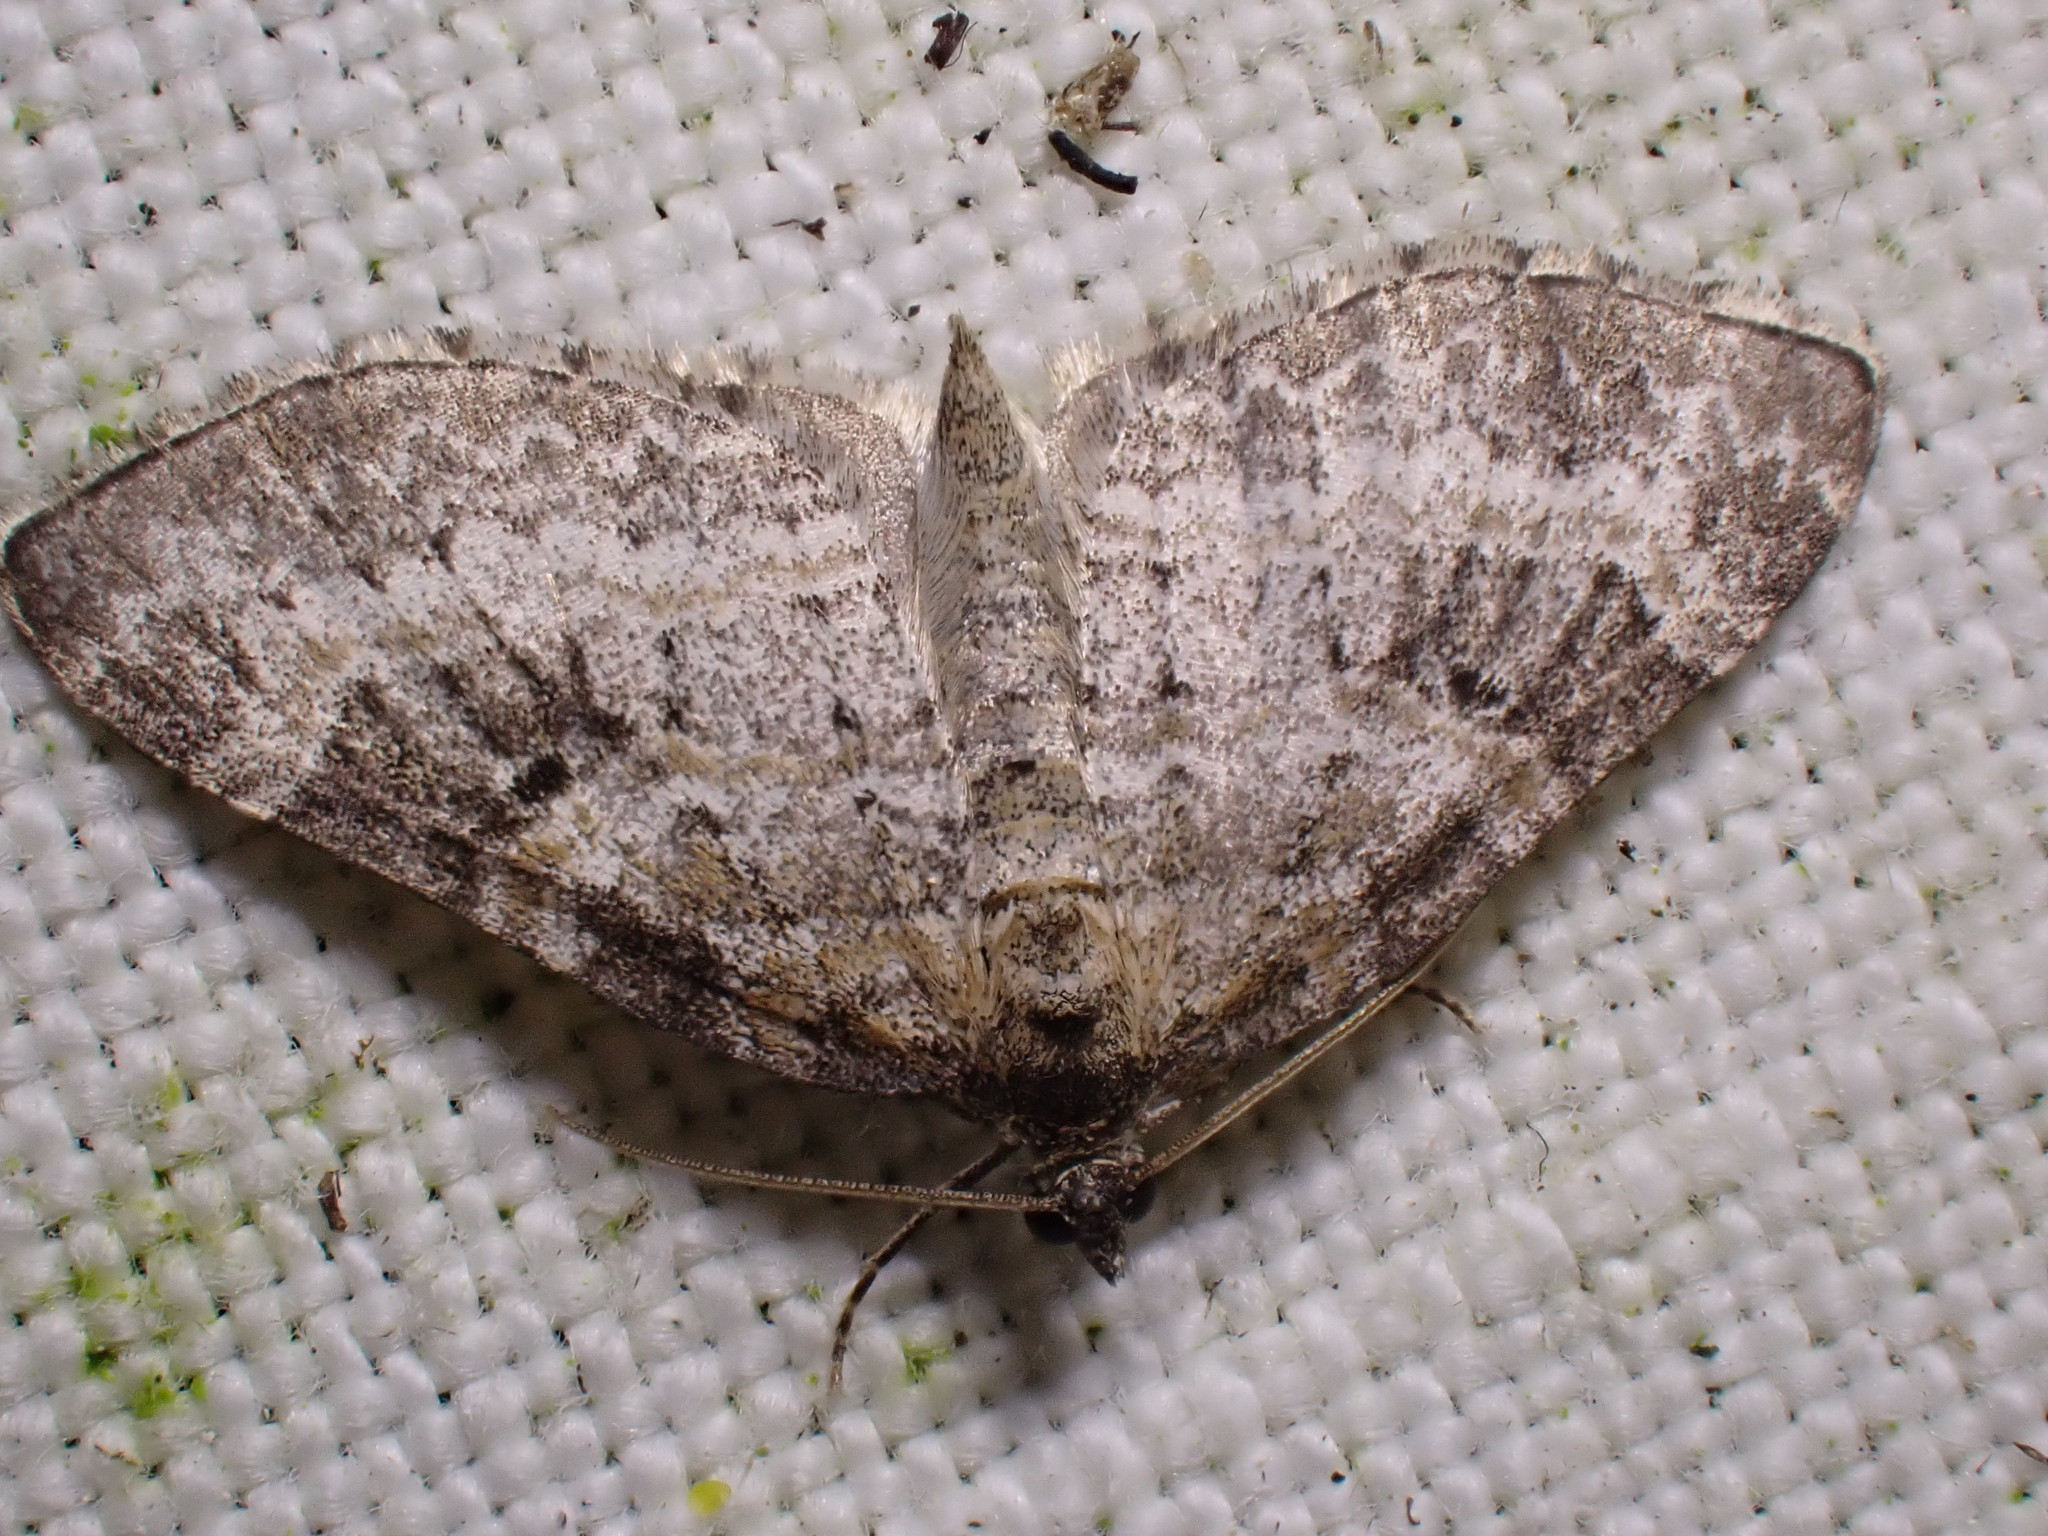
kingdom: Animalia
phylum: Arthropoda
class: Insecta
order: Lepidoptera
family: Geometridae
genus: Pterapherapteryx
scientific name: Pterapherapteryx sexalata
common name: Small seraphim
